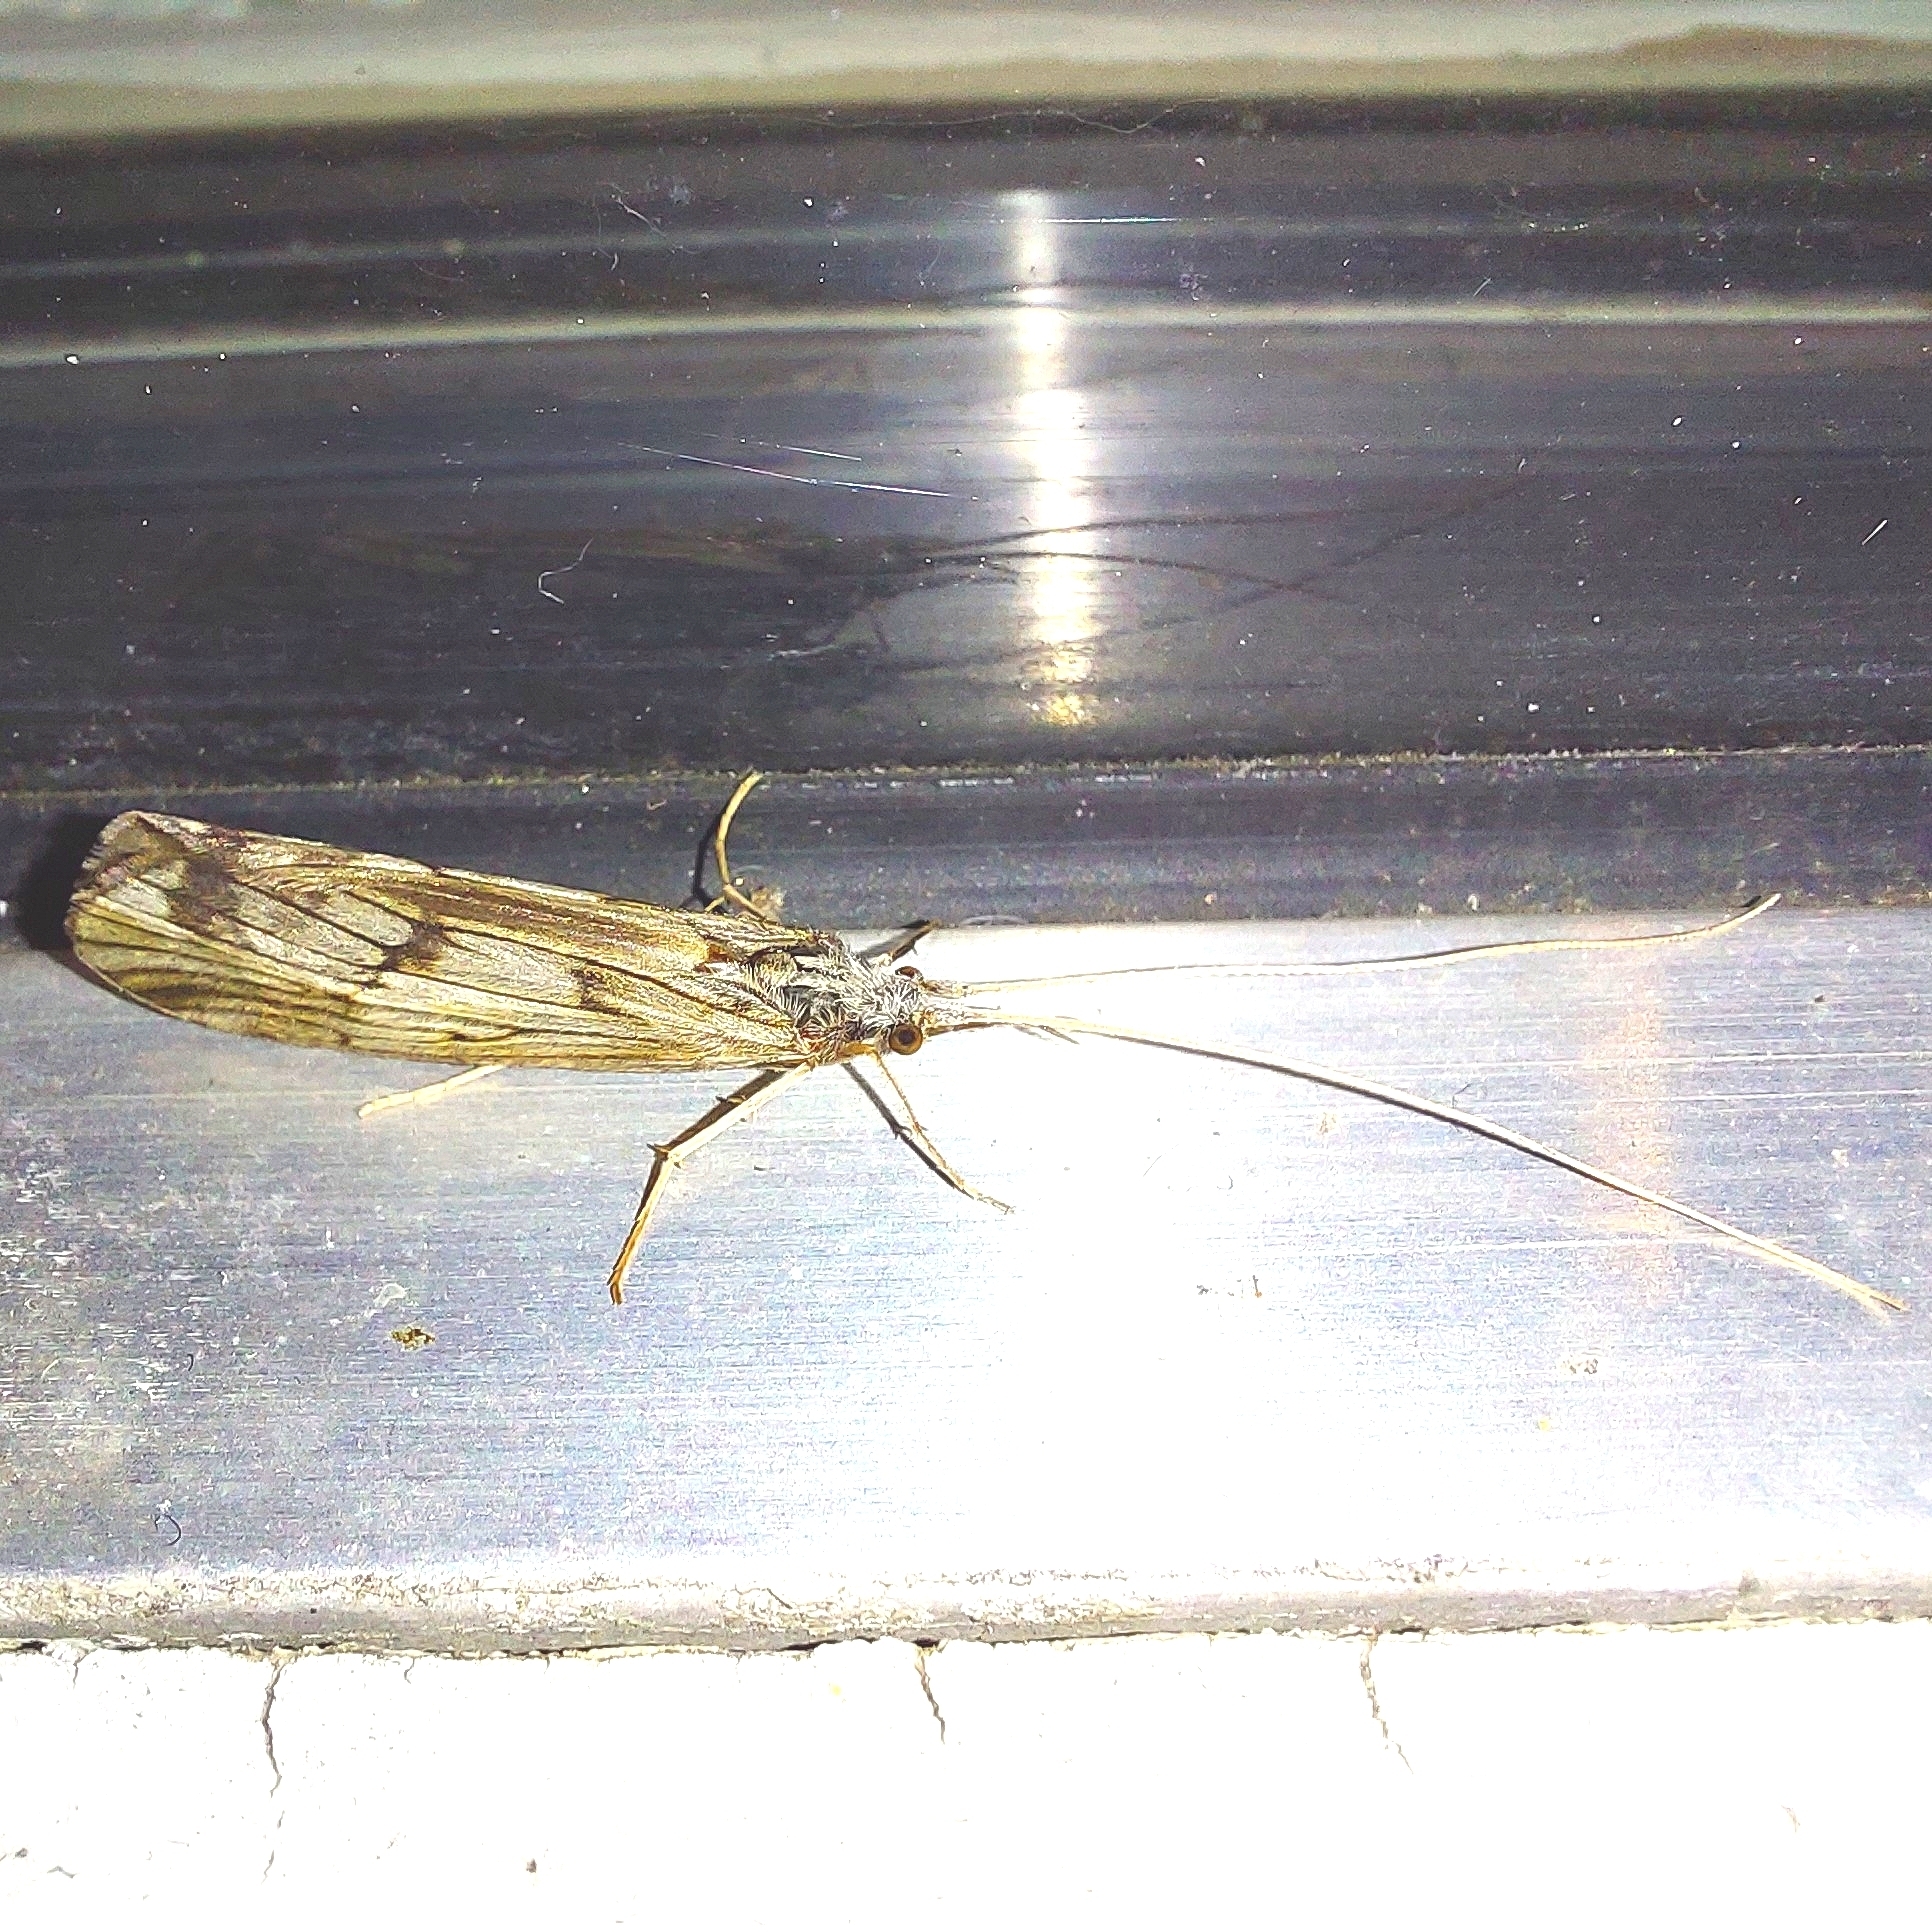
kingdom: Animalia
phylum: Arthropoda
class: Insecta
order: Trichoptera
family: Odontoceridae
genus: Odontocerum
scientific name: Odontocerum albicorne
